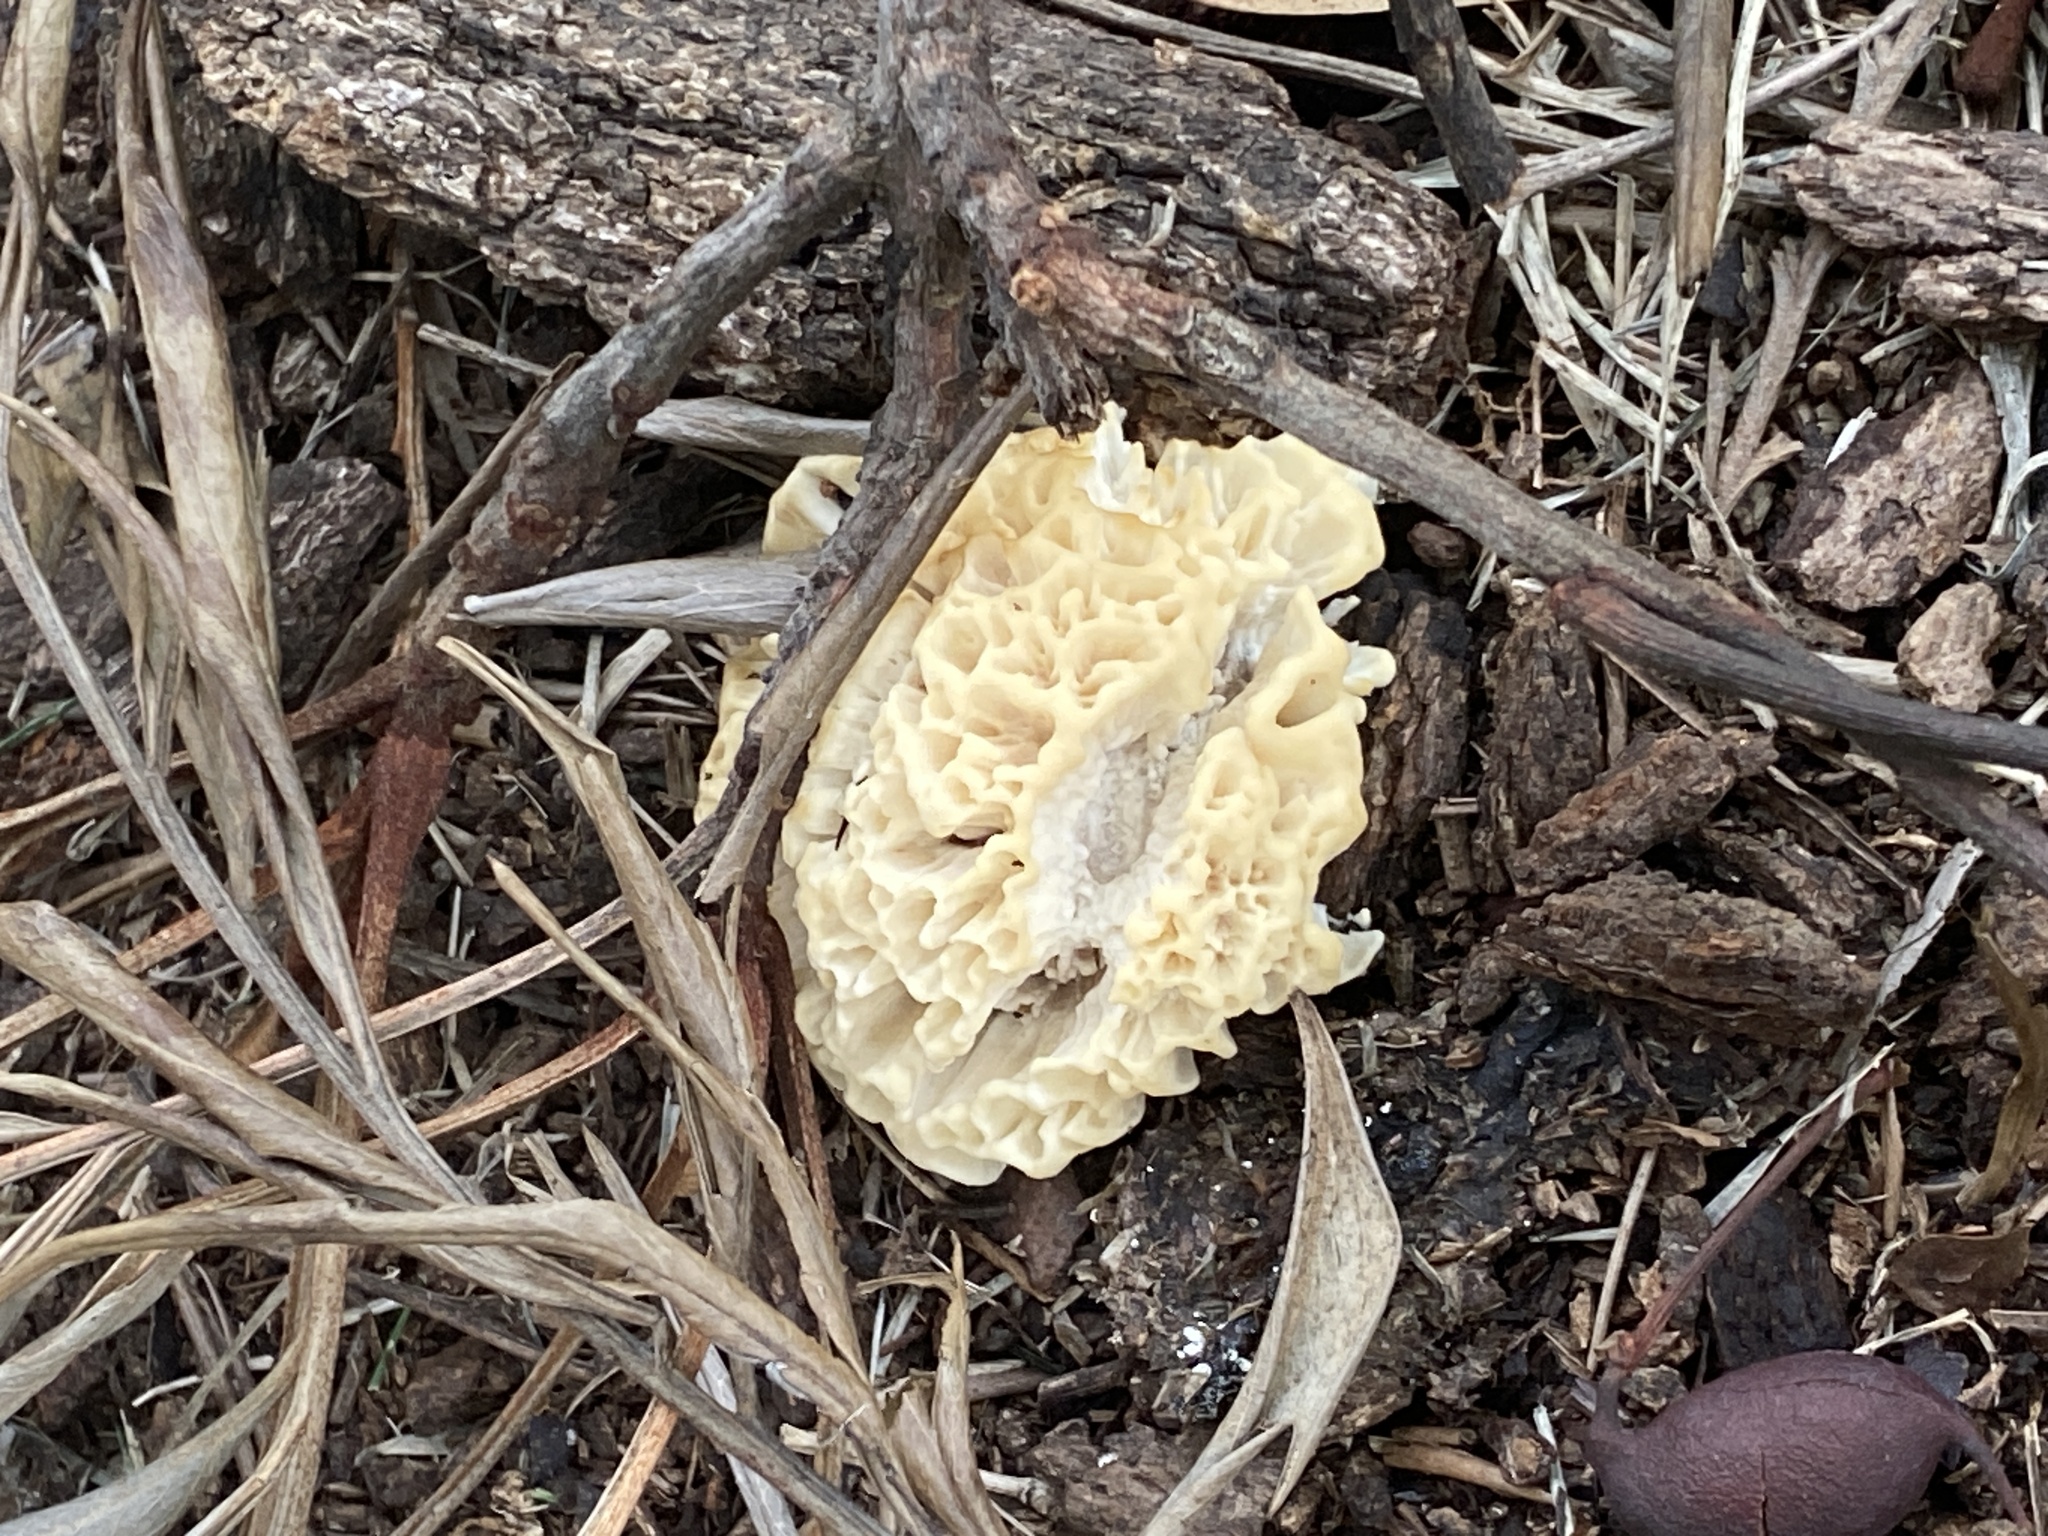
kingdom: Fungi
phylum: Basidiomycota
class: Agaricomycetes
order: Polyporales
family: Irpicaceae
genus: Irpex
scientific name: Irpex rosettiformis
